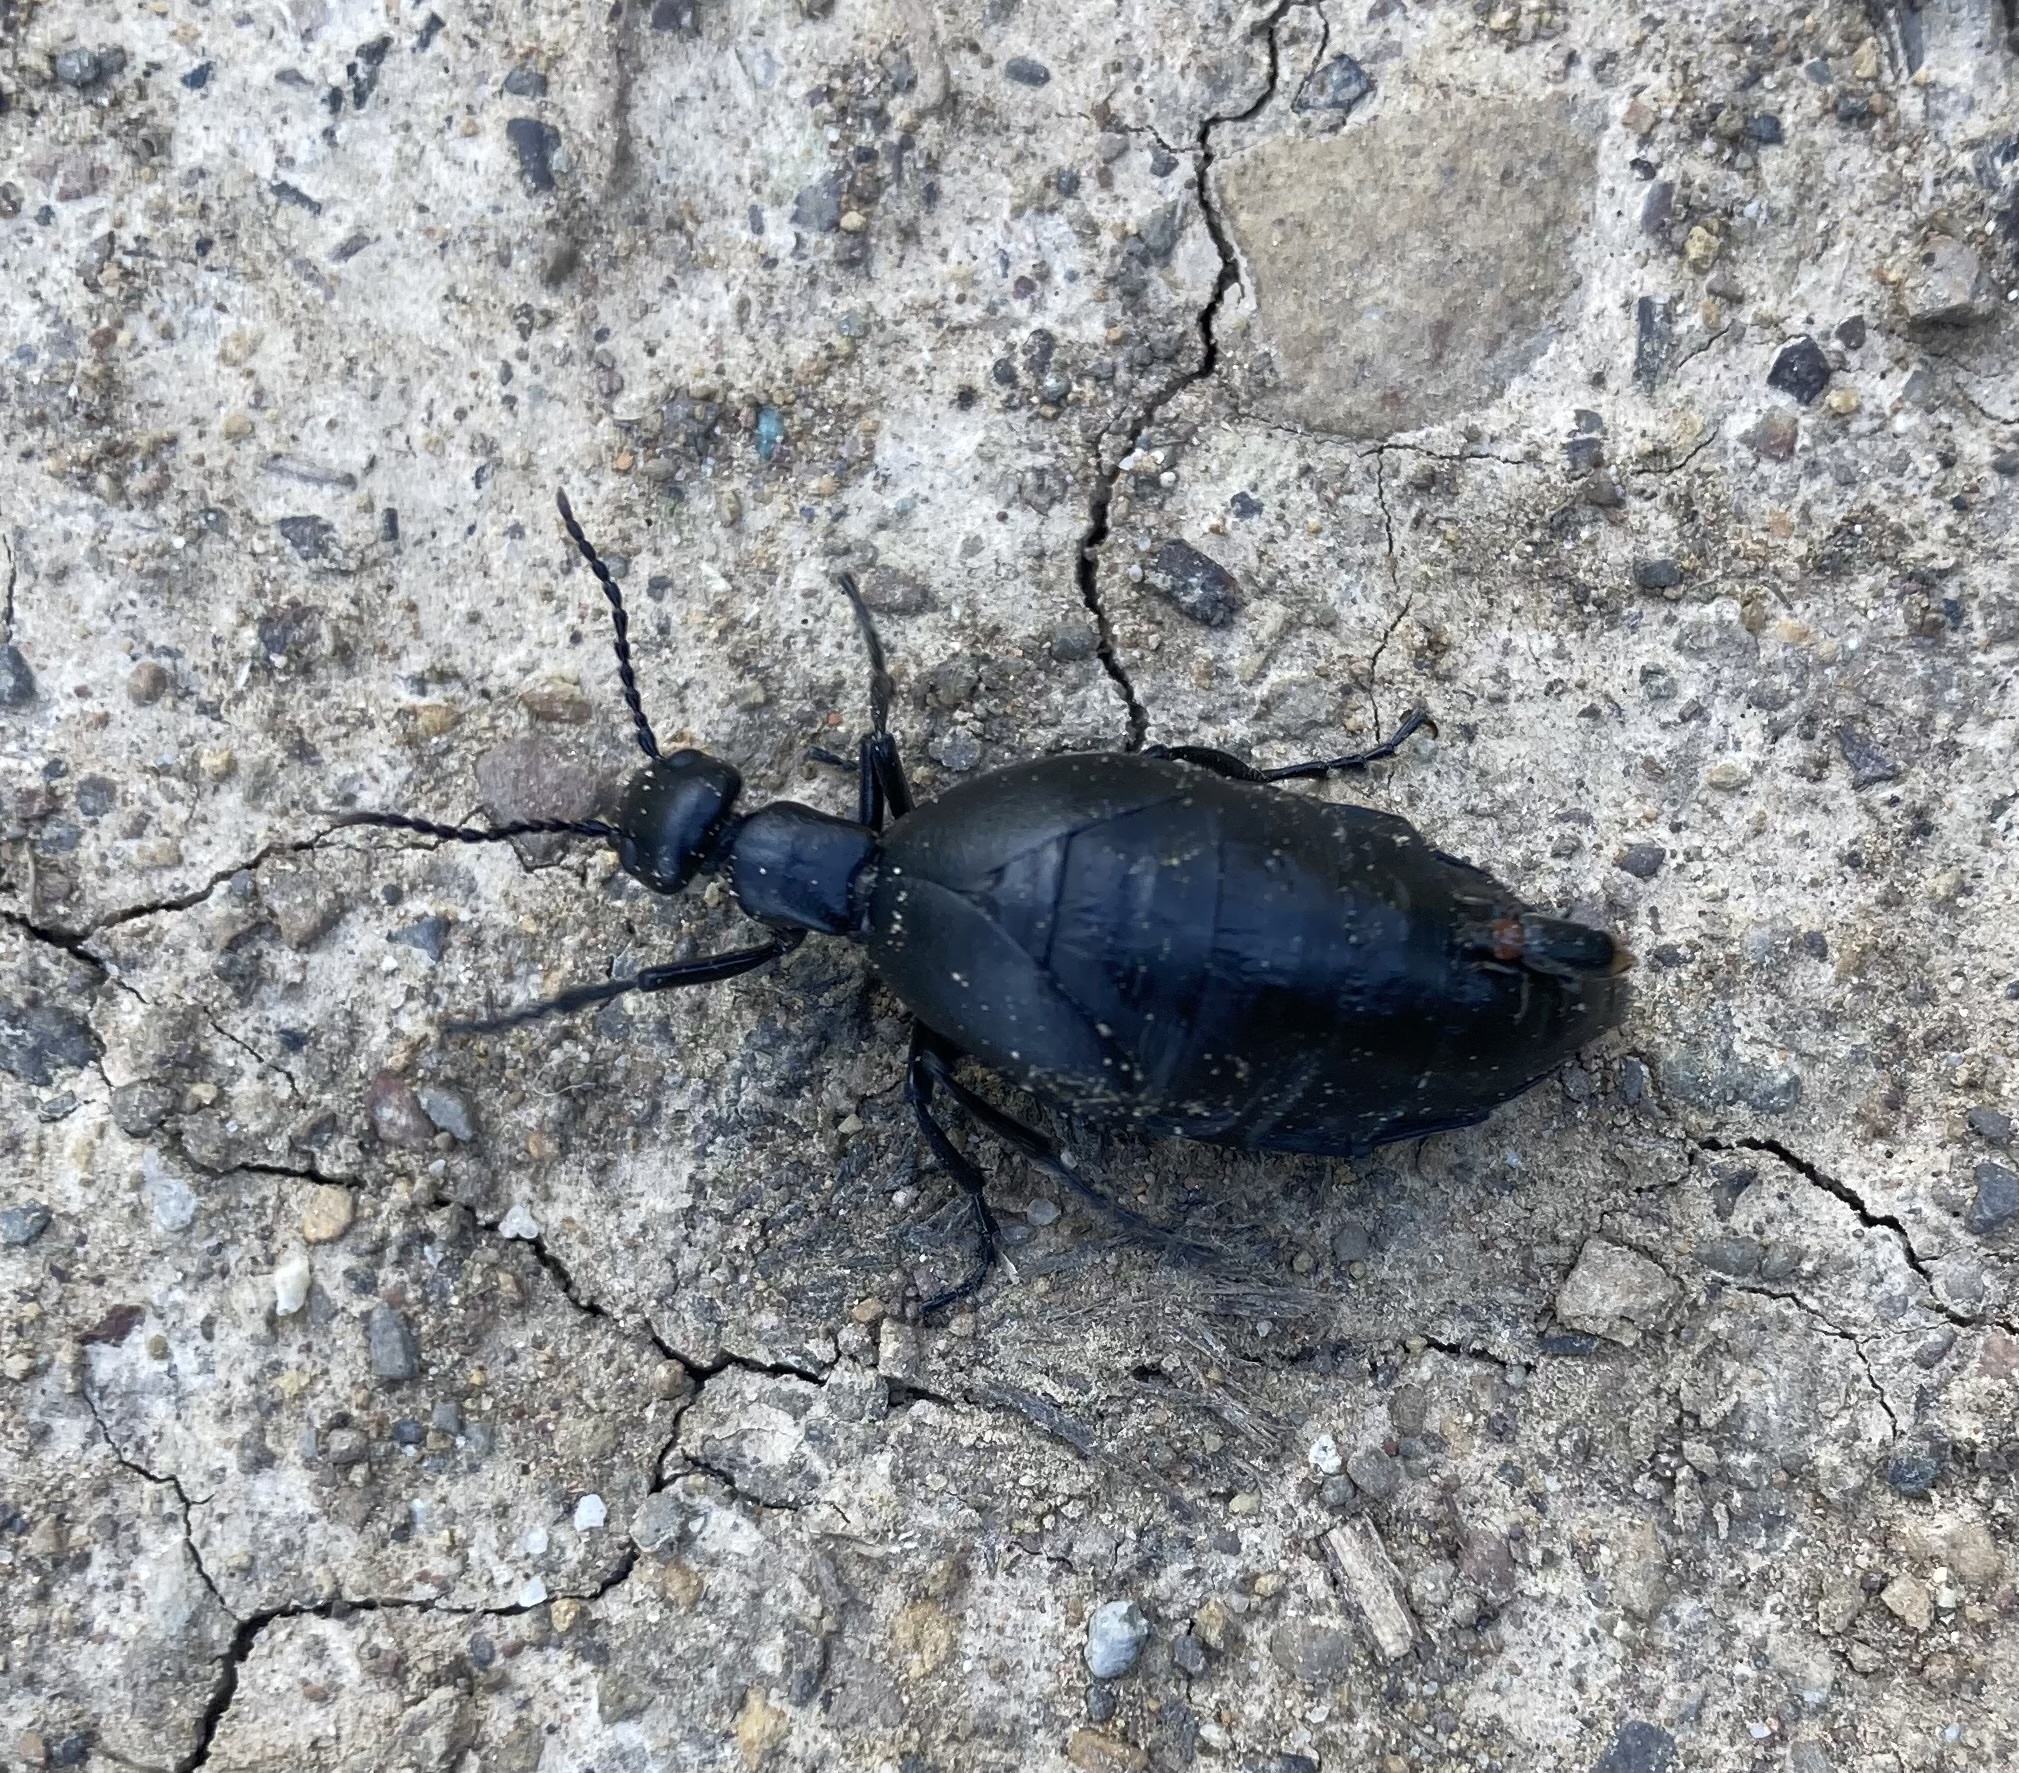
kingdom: Animalia
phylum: Arthropoda
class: Insecta
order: Coleoptera
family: Meloidae
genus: Meloe
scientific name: Meloe strigulosus
